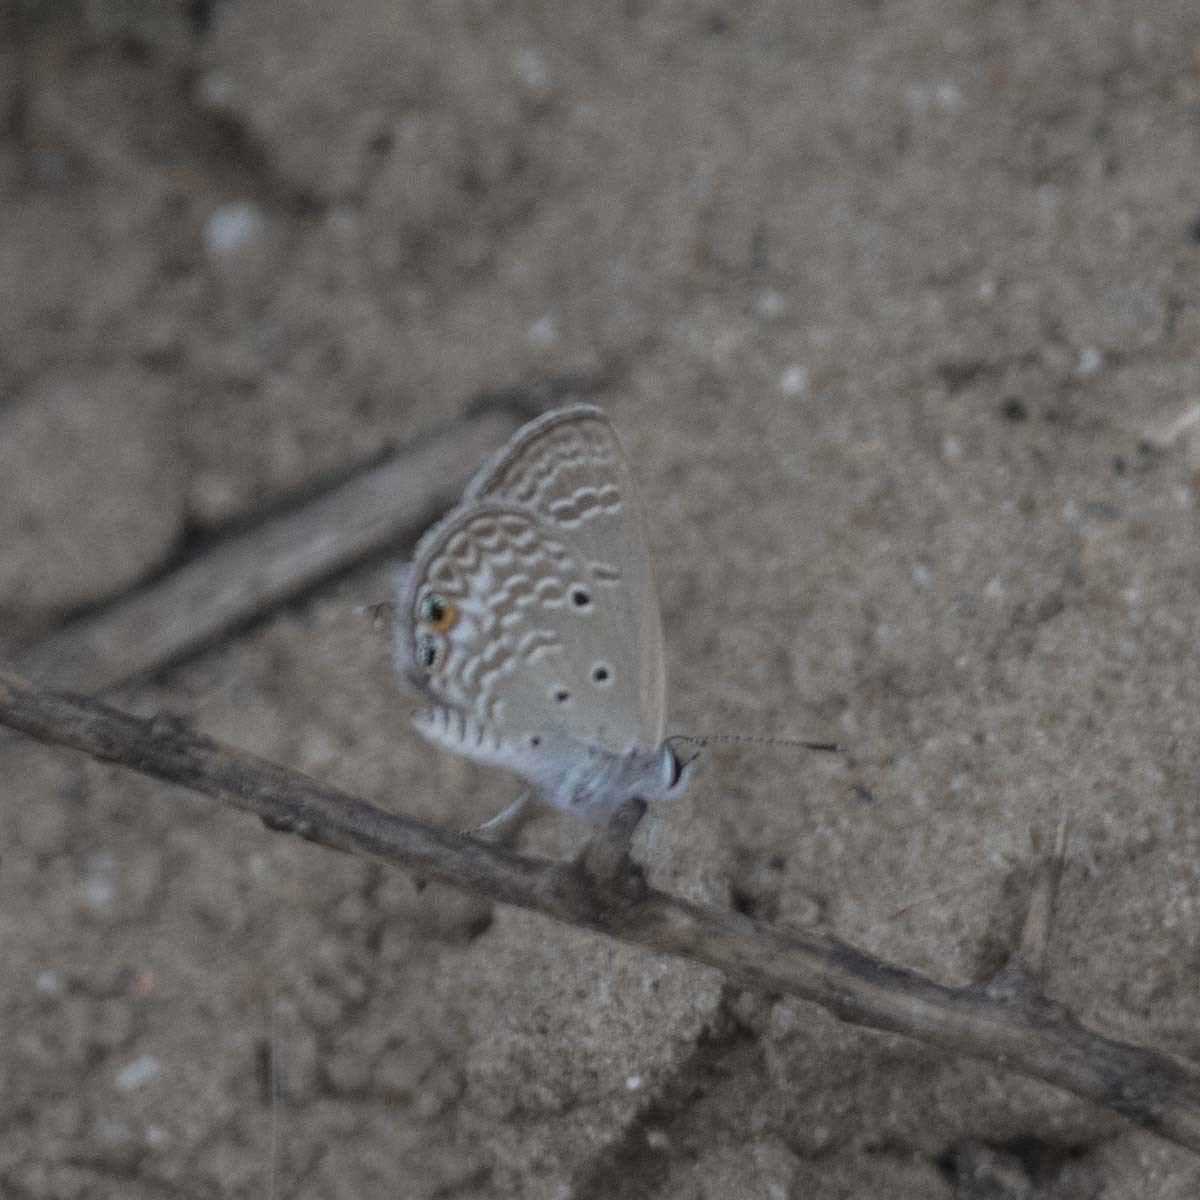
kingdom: Animalia
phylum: Arthropoda
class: Insecta
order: Lepidoptera
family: Lycaenidae
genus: Chilades
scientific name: Chilades parrhasius
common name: Small cupid
